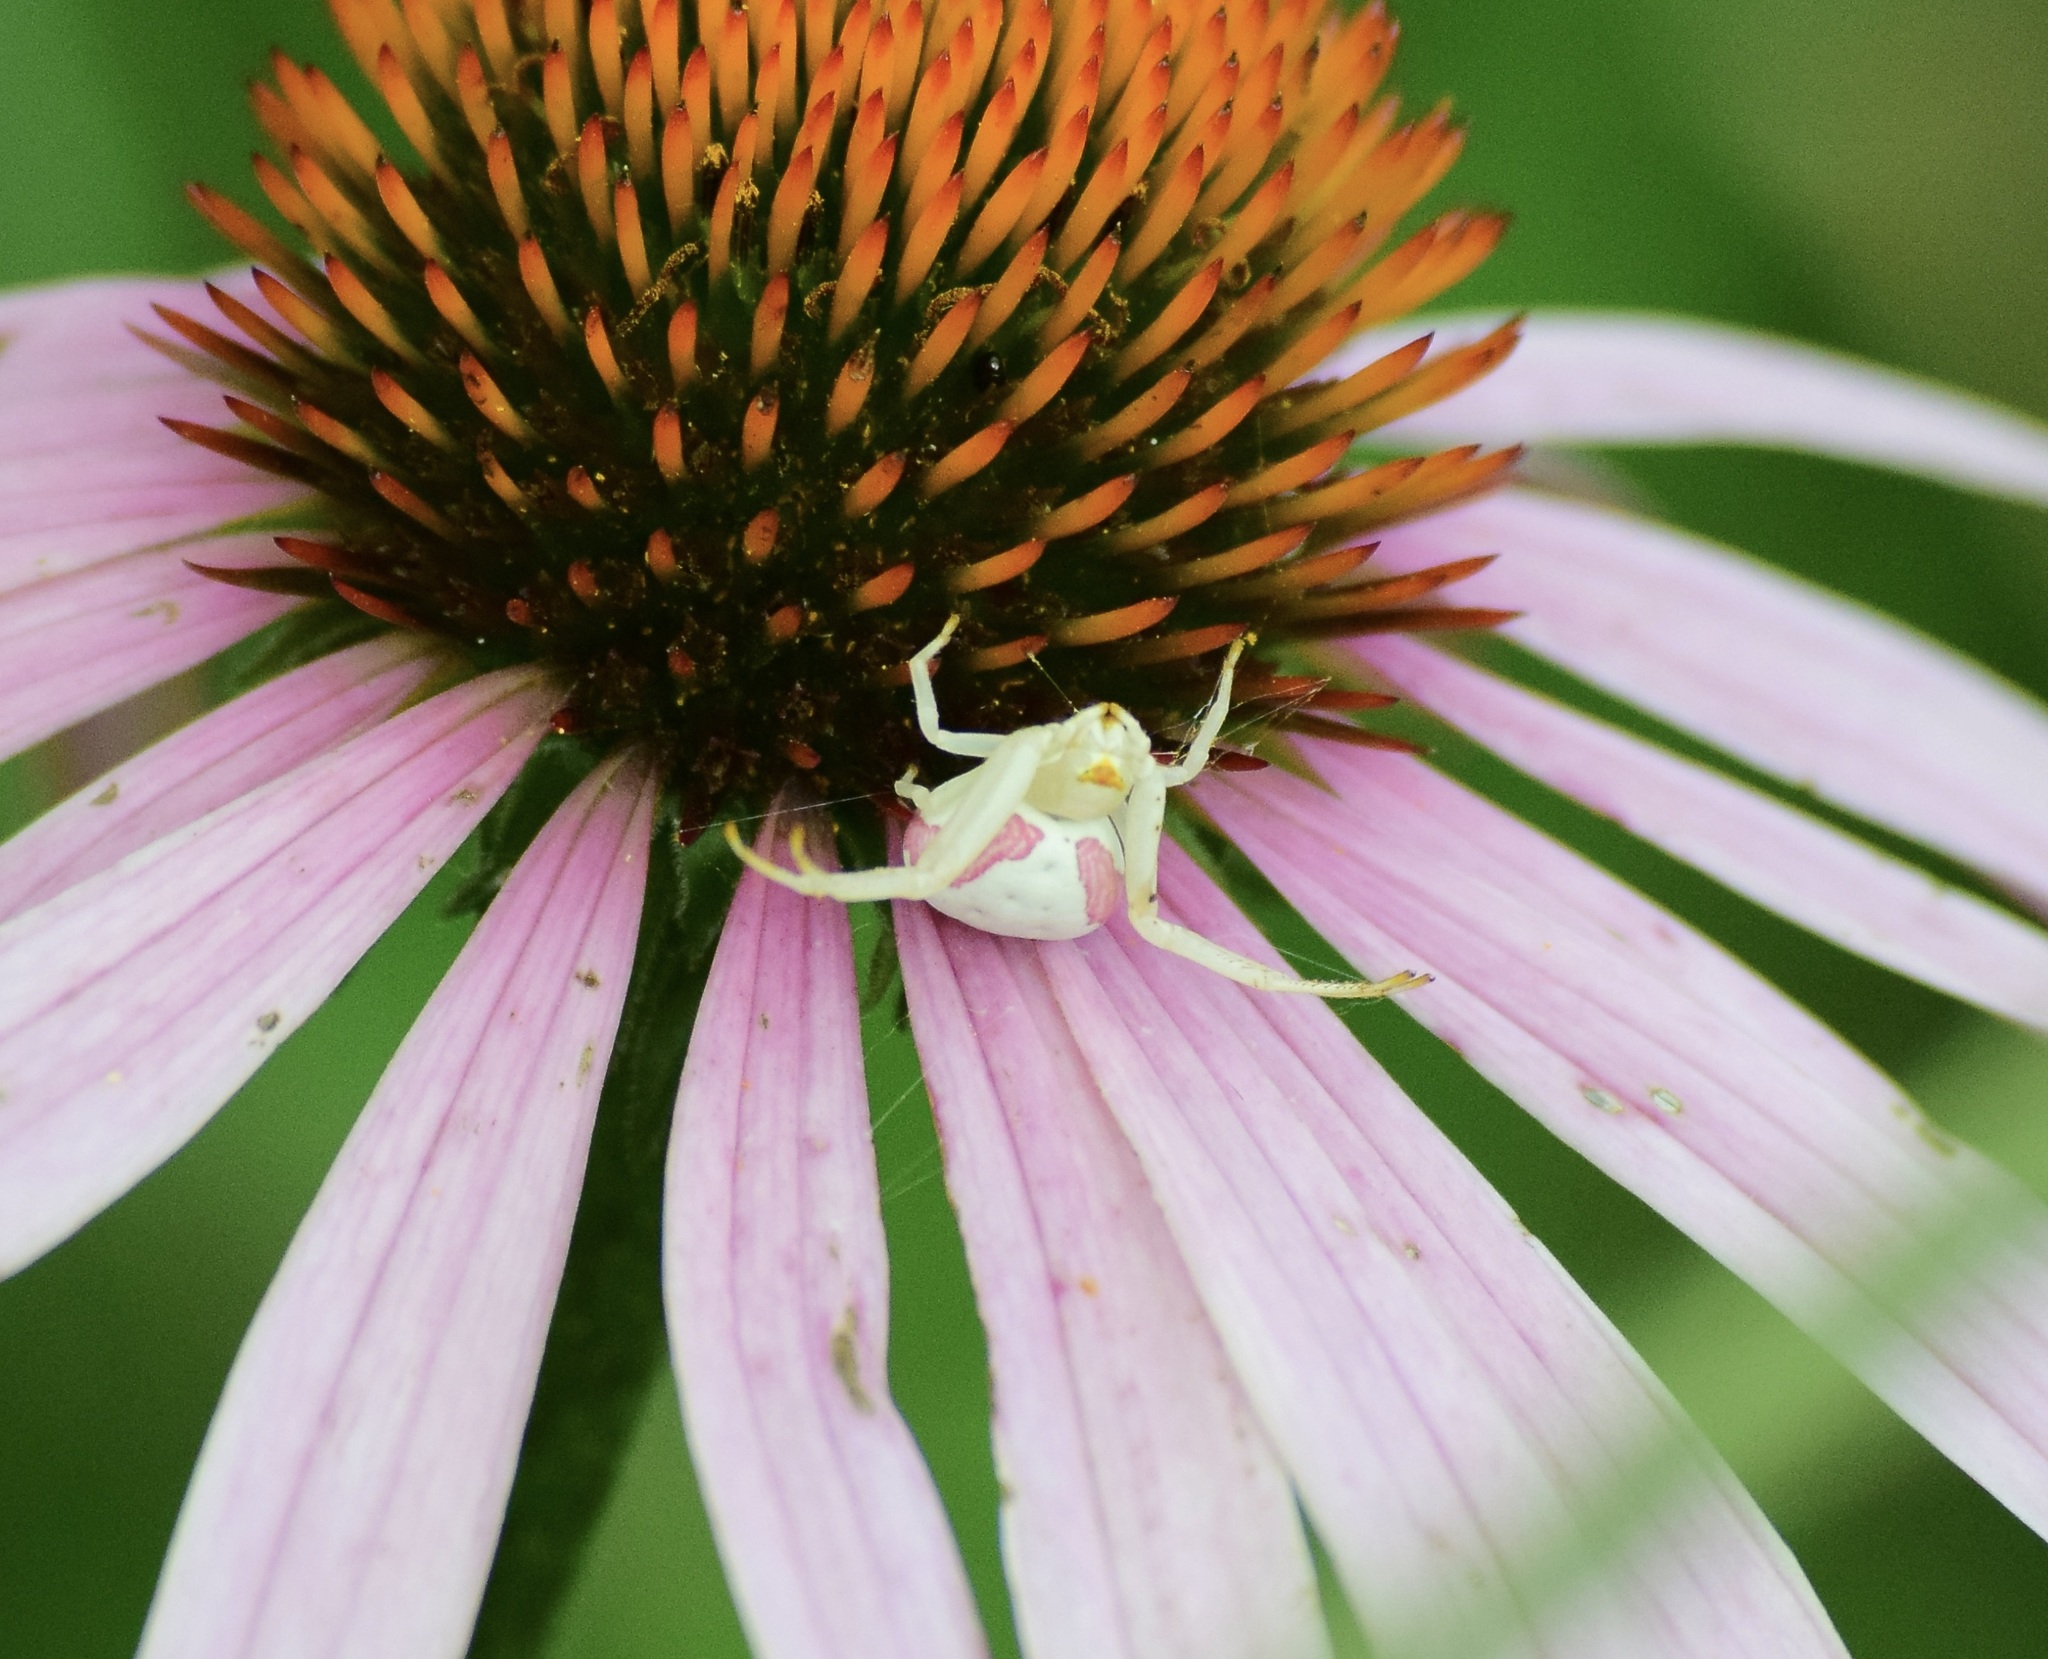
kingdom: Animalia
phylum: Arthropoda
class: Arachnida
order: Araneae
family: Thomisidae
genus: Misumena
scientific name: Misumena vatia
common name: Goldenrod crab spider
